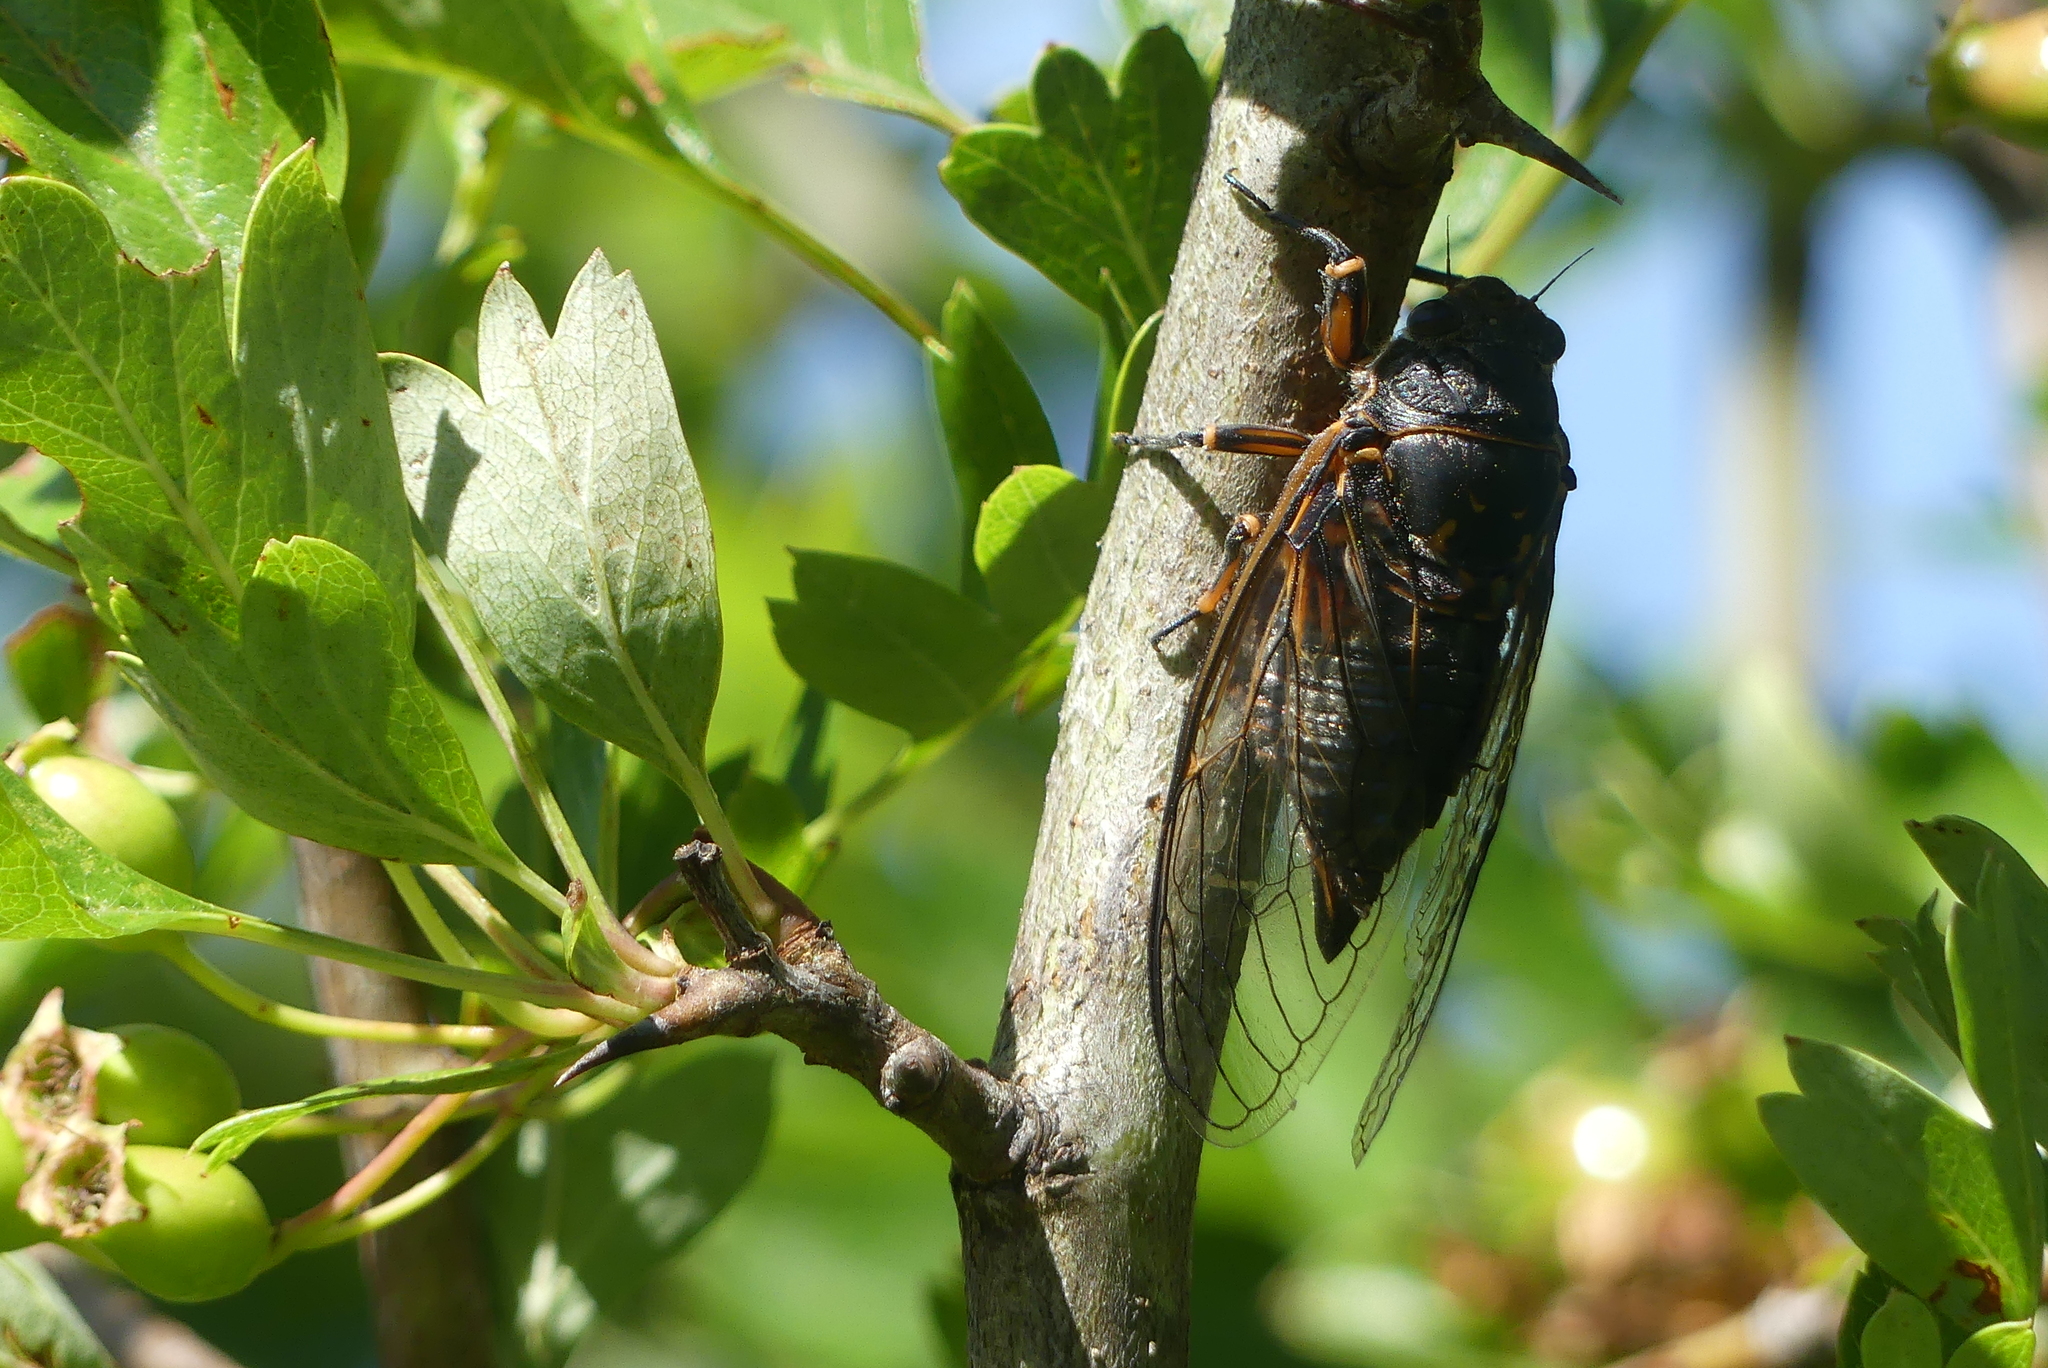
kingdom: Animalia
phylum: Arthropoda
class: Insecta
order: Hemiptera
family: Cicadidae
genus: Okanagana
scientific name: Okanagana occidentalis
